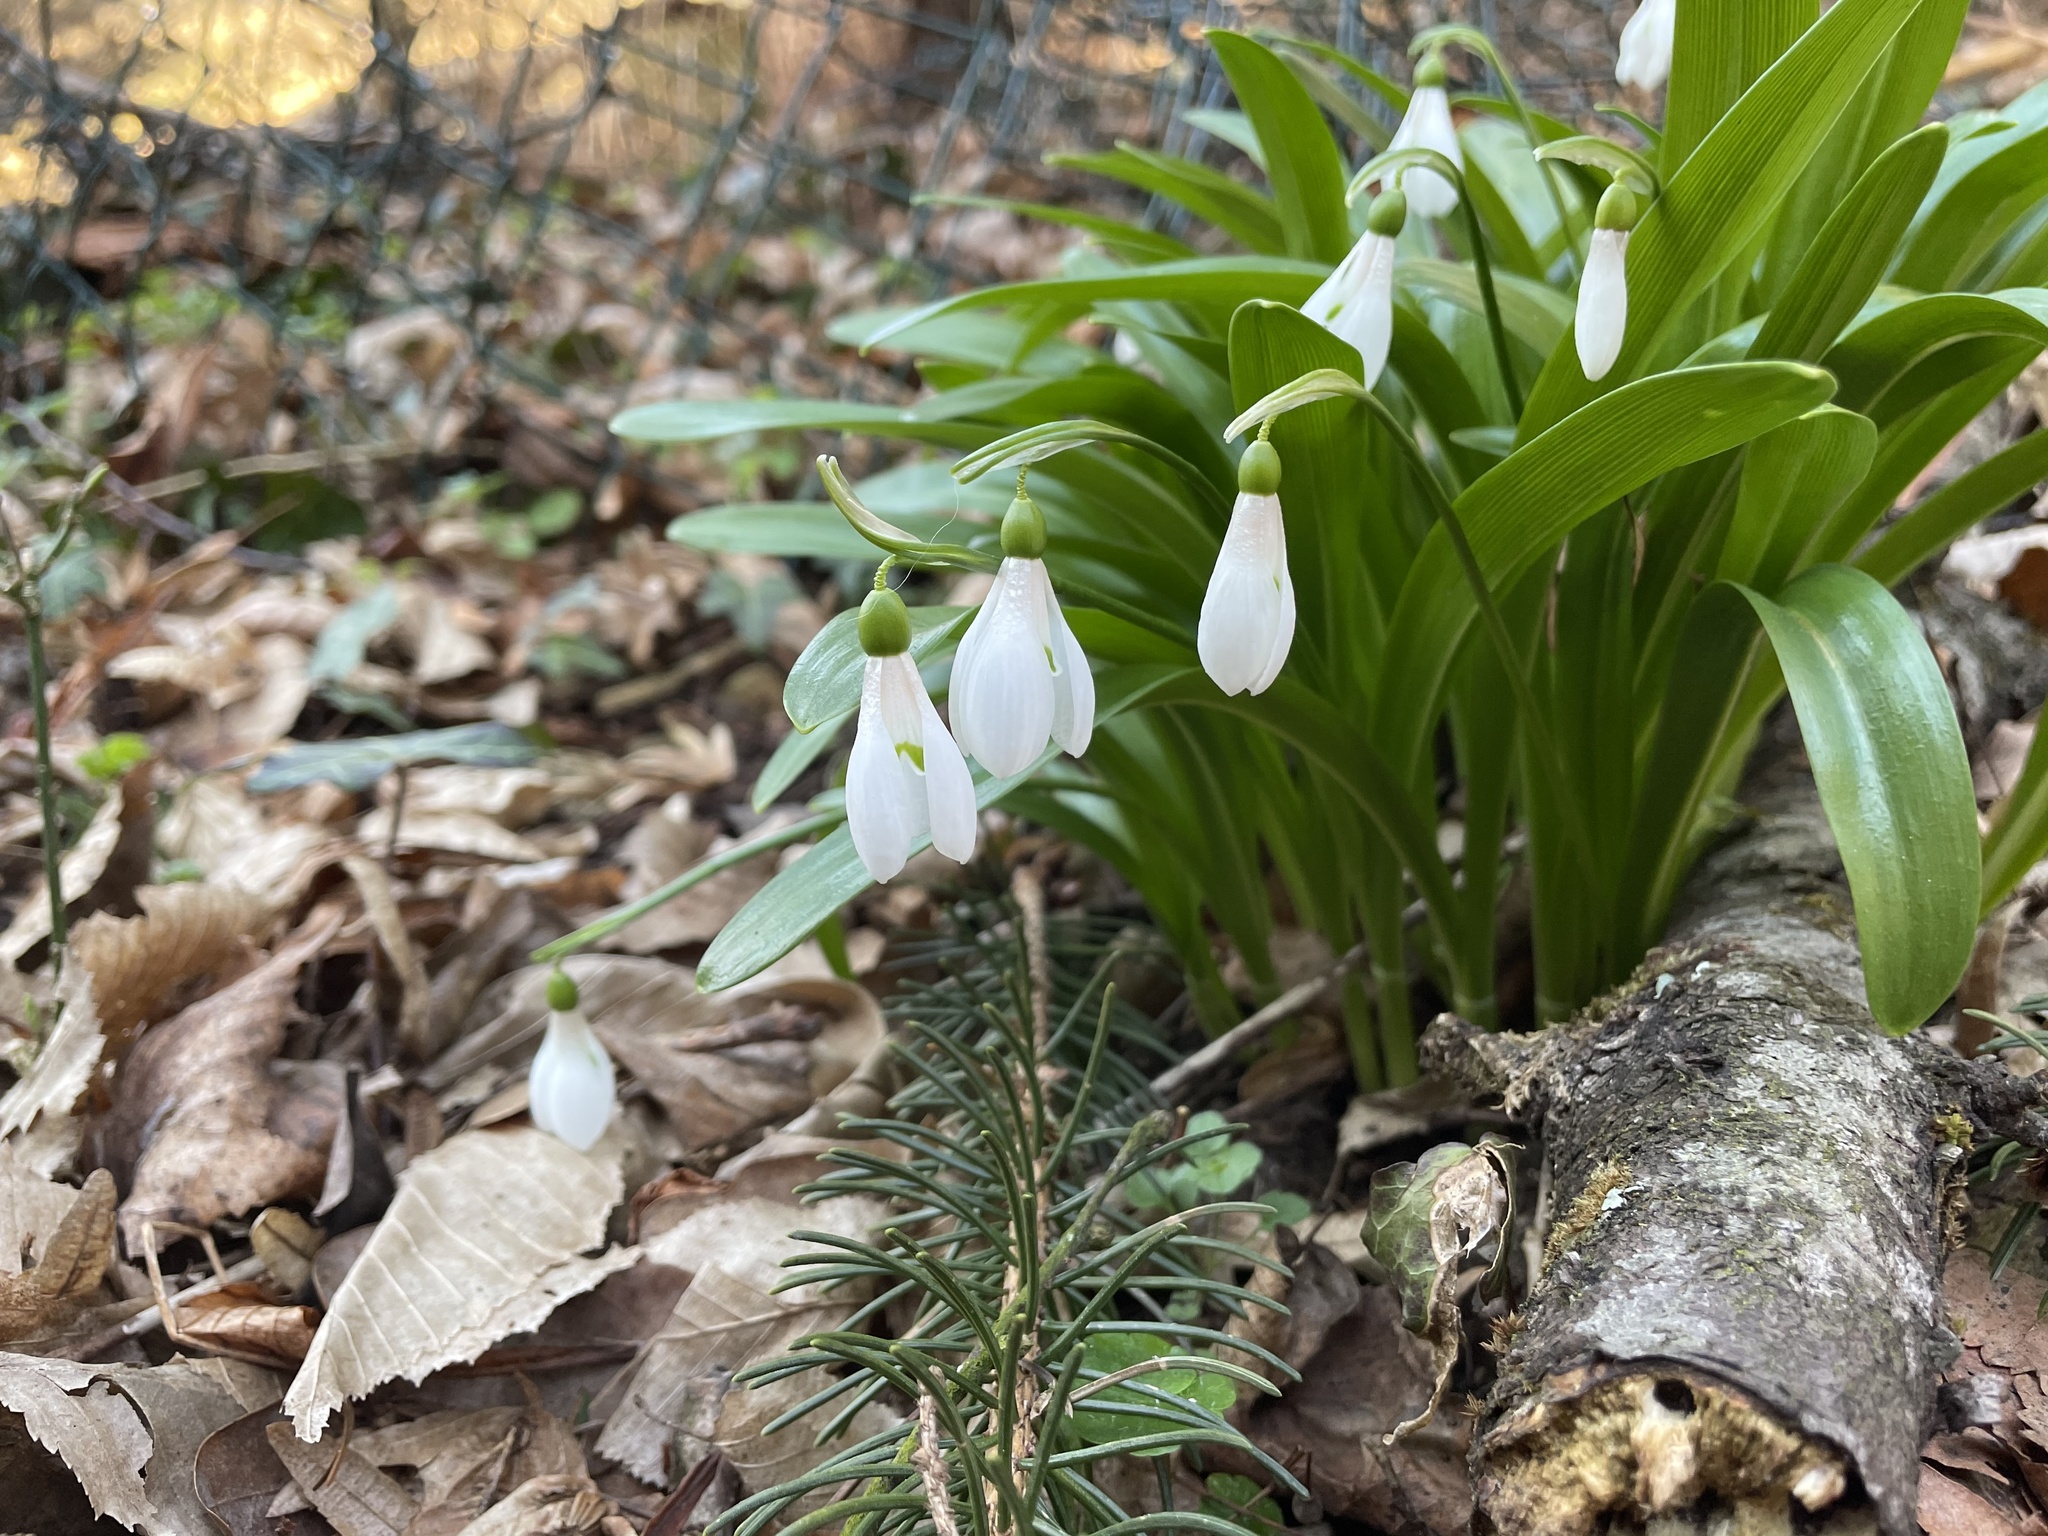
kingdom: Plantae
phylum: Tracheophyta
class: Liliopsida
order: Asparagales
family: Amaryllidaceae
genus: Galanthus
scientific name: Galanthus woronowii
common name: Green snowdrop
